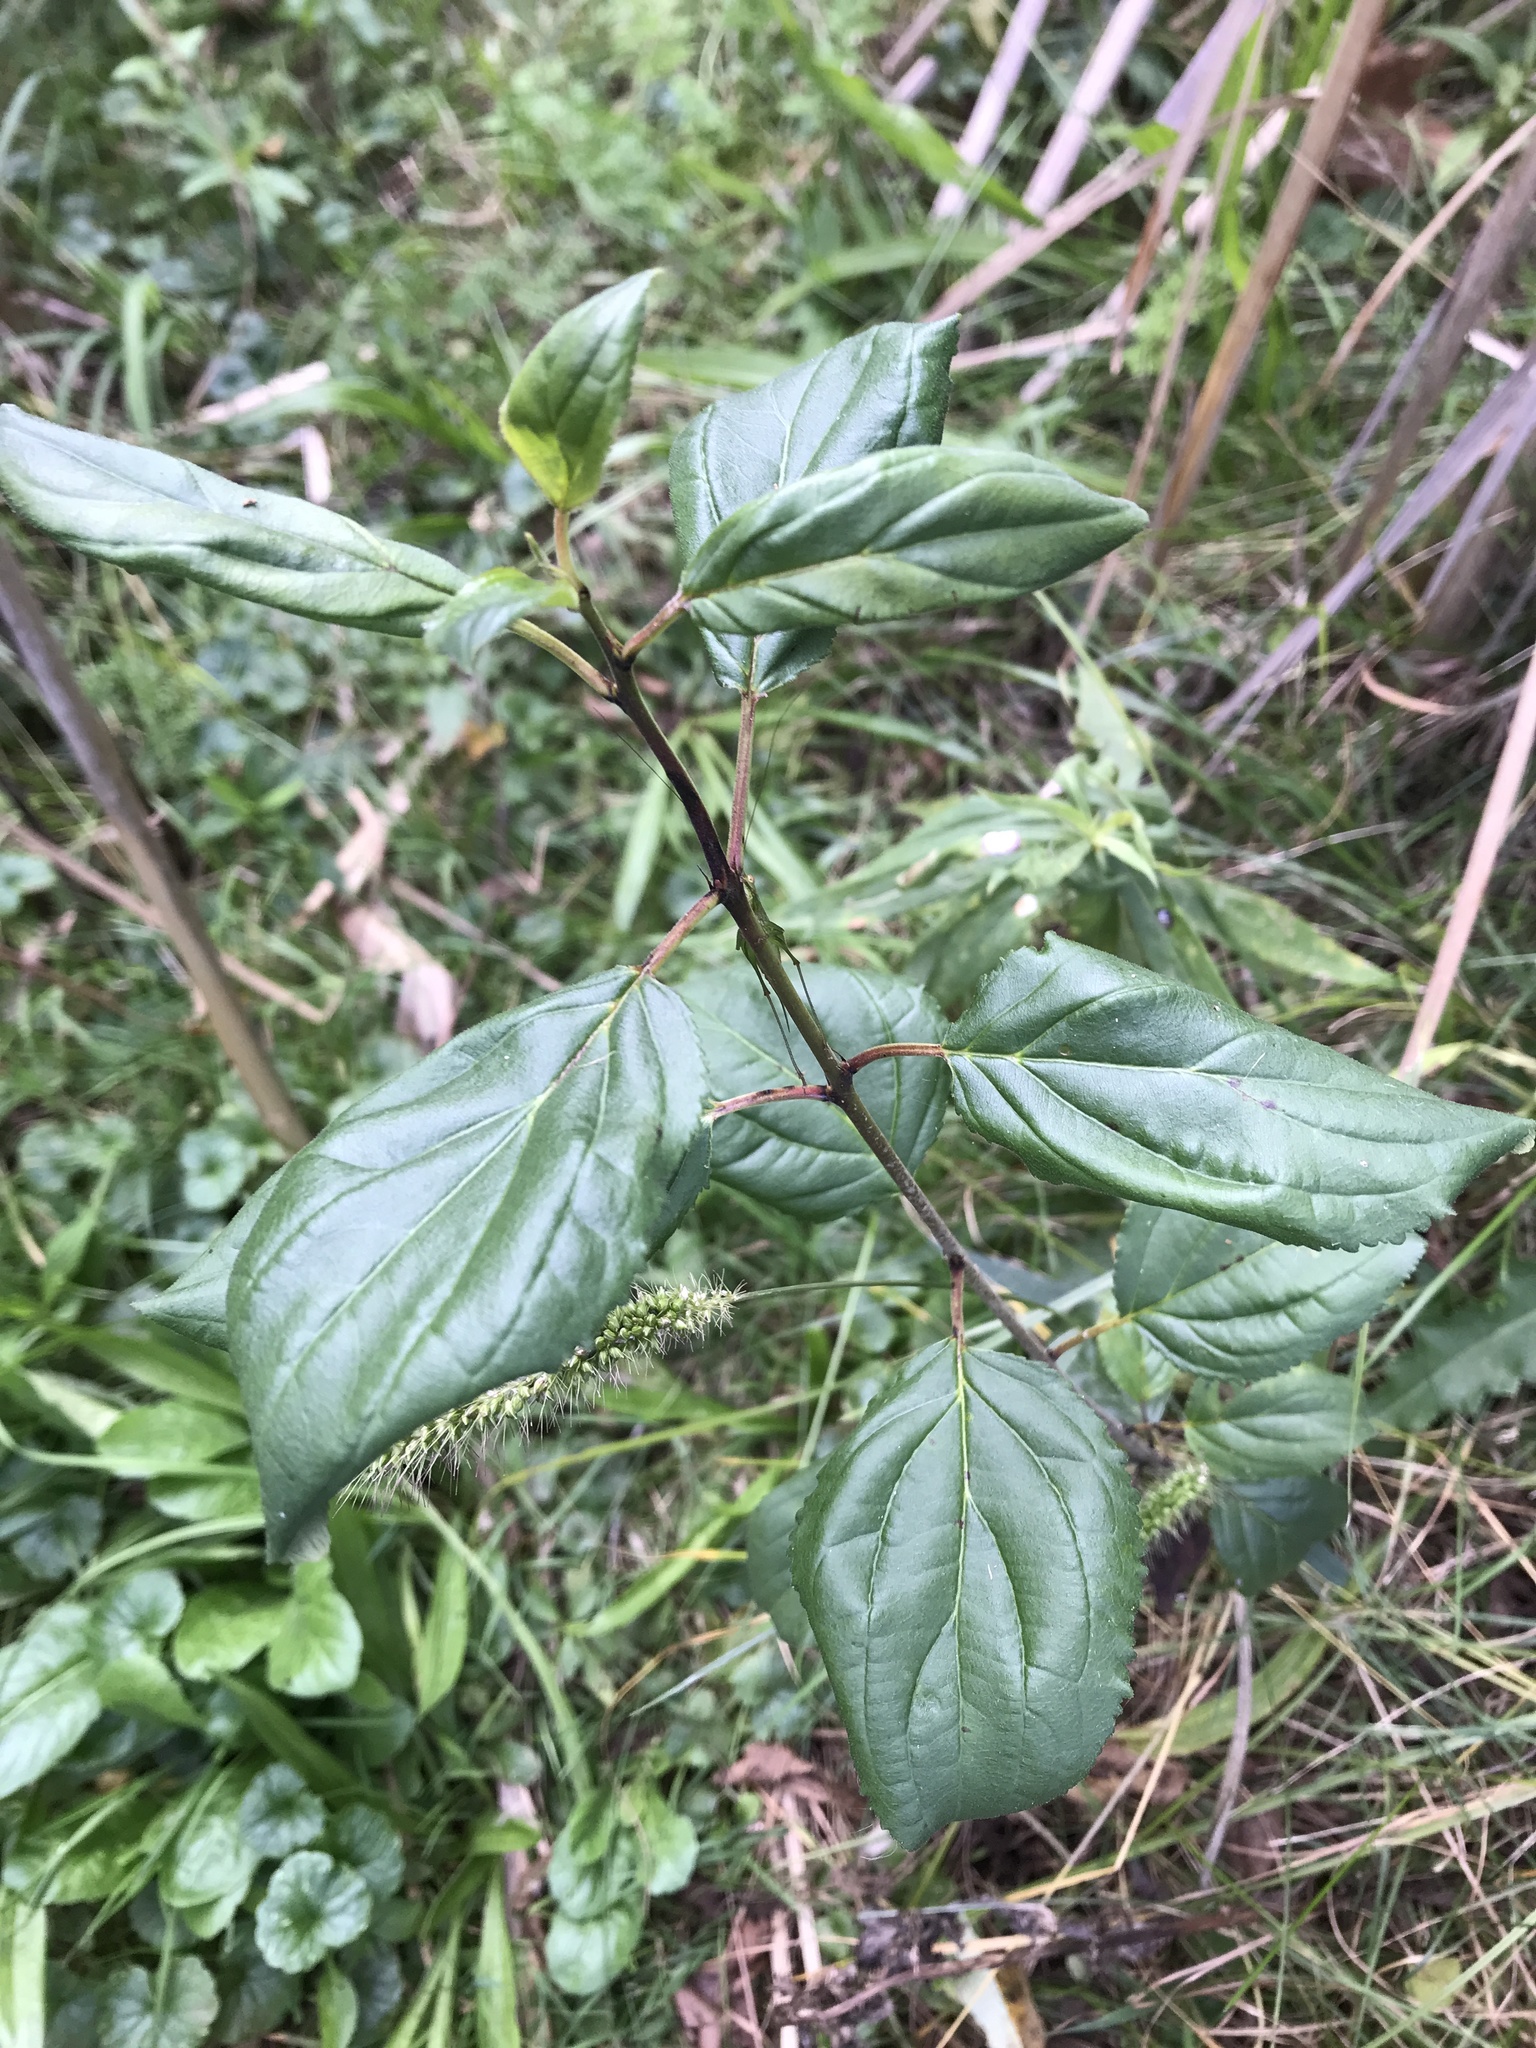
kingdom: Plantae
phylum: Tracheophyta
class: Magnoliopsida
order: Rosales
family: Rhamnaceae
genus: Rhamnus
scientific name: Rhamnus cathartica
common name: Common buckthorn
